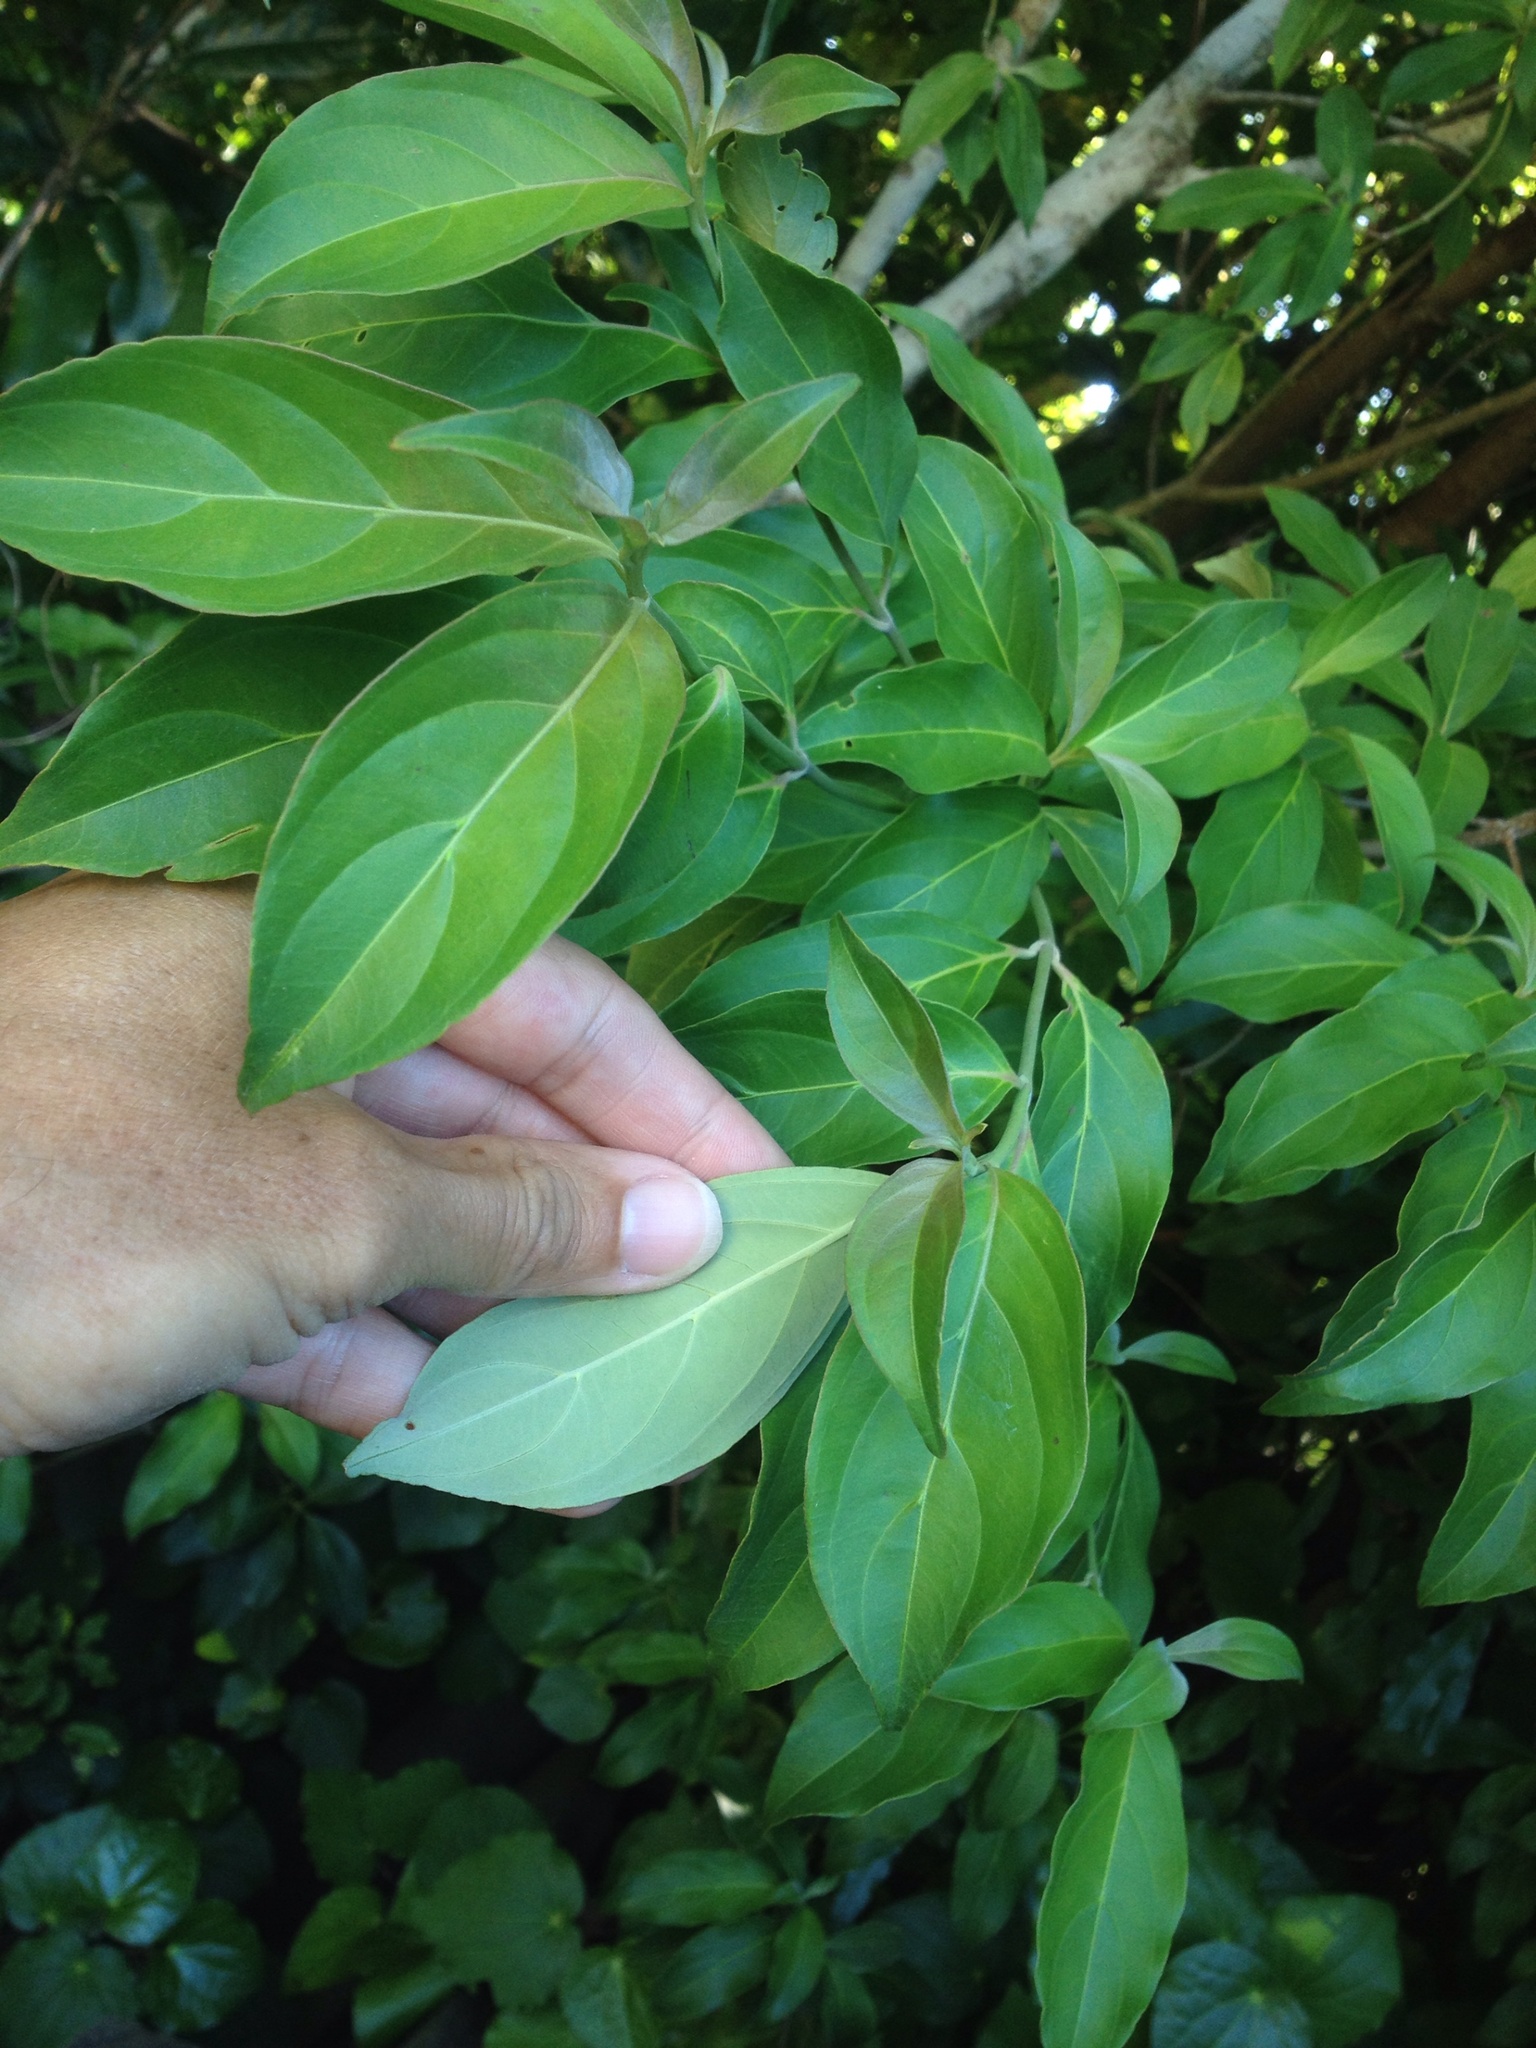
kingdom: Plantae
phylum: Tracheophyta
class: Magnoliopsida
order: Cornales
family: Cornaceae
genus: Cornus
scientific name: Cornus capitata
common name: Bentham's cornel
